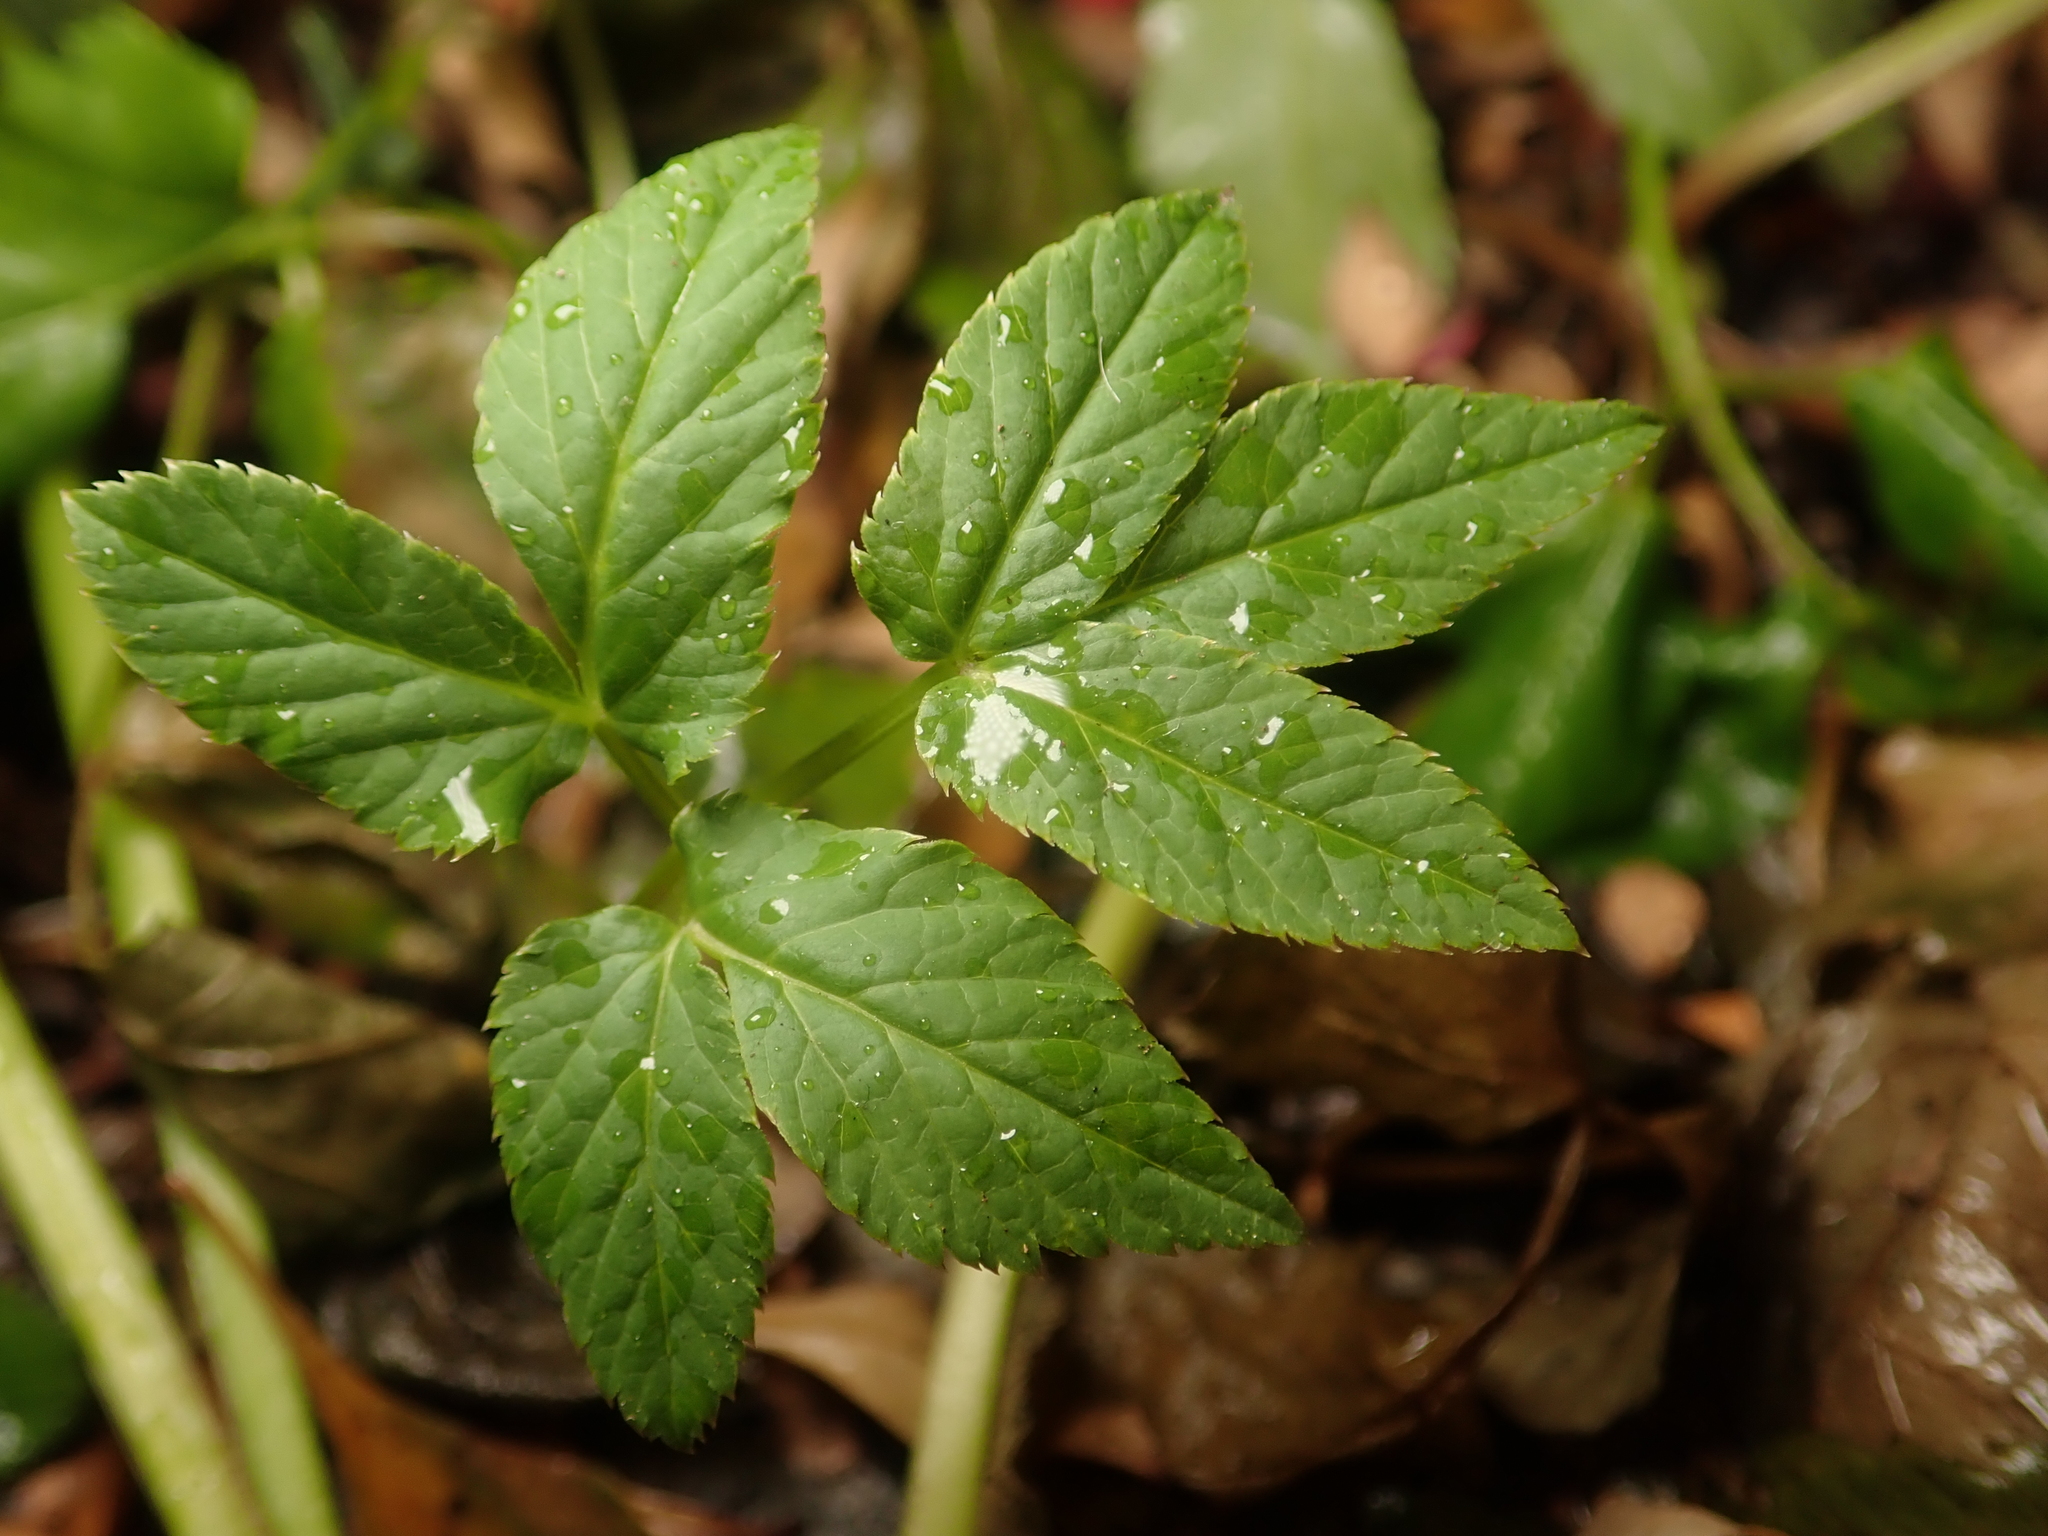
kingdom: Plantae
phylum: Tracheophyta
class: Magnoliopsida
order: Apiales
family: Apiaceae
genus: Aegopodium
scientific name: Aegopodium podagraria
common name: Ground-elder
